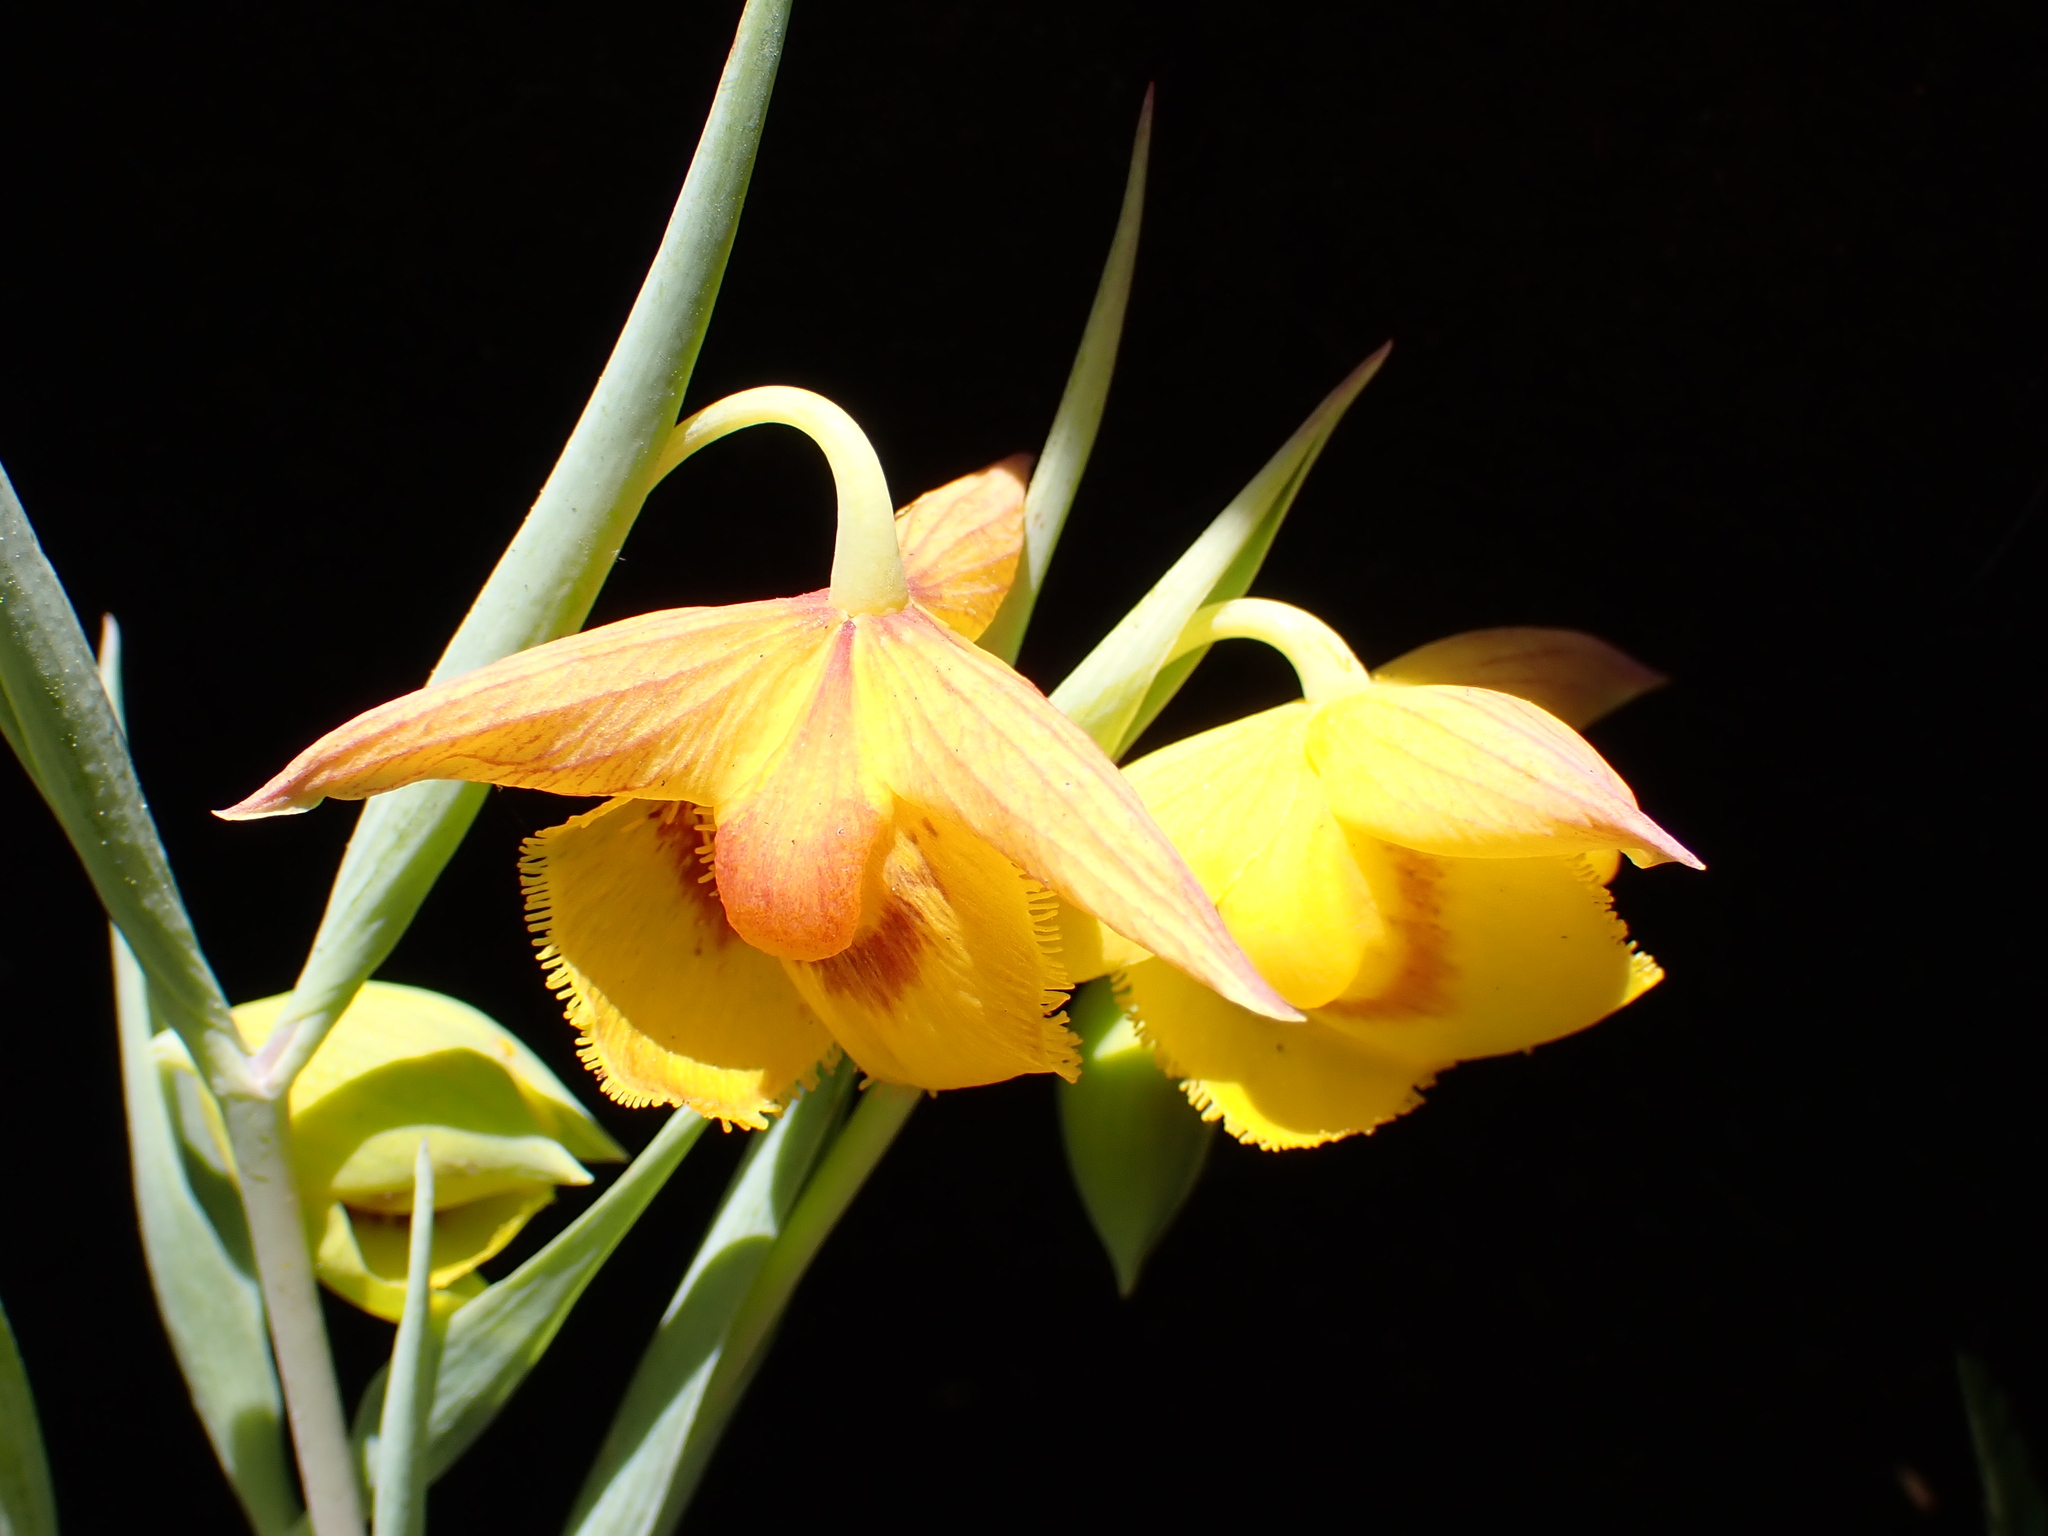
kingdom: Plantae
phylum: Tracheophyta
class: Liliopsida
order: Liliales
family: Liliaceae
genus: Calochortus
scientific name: Calochortus amabilis
